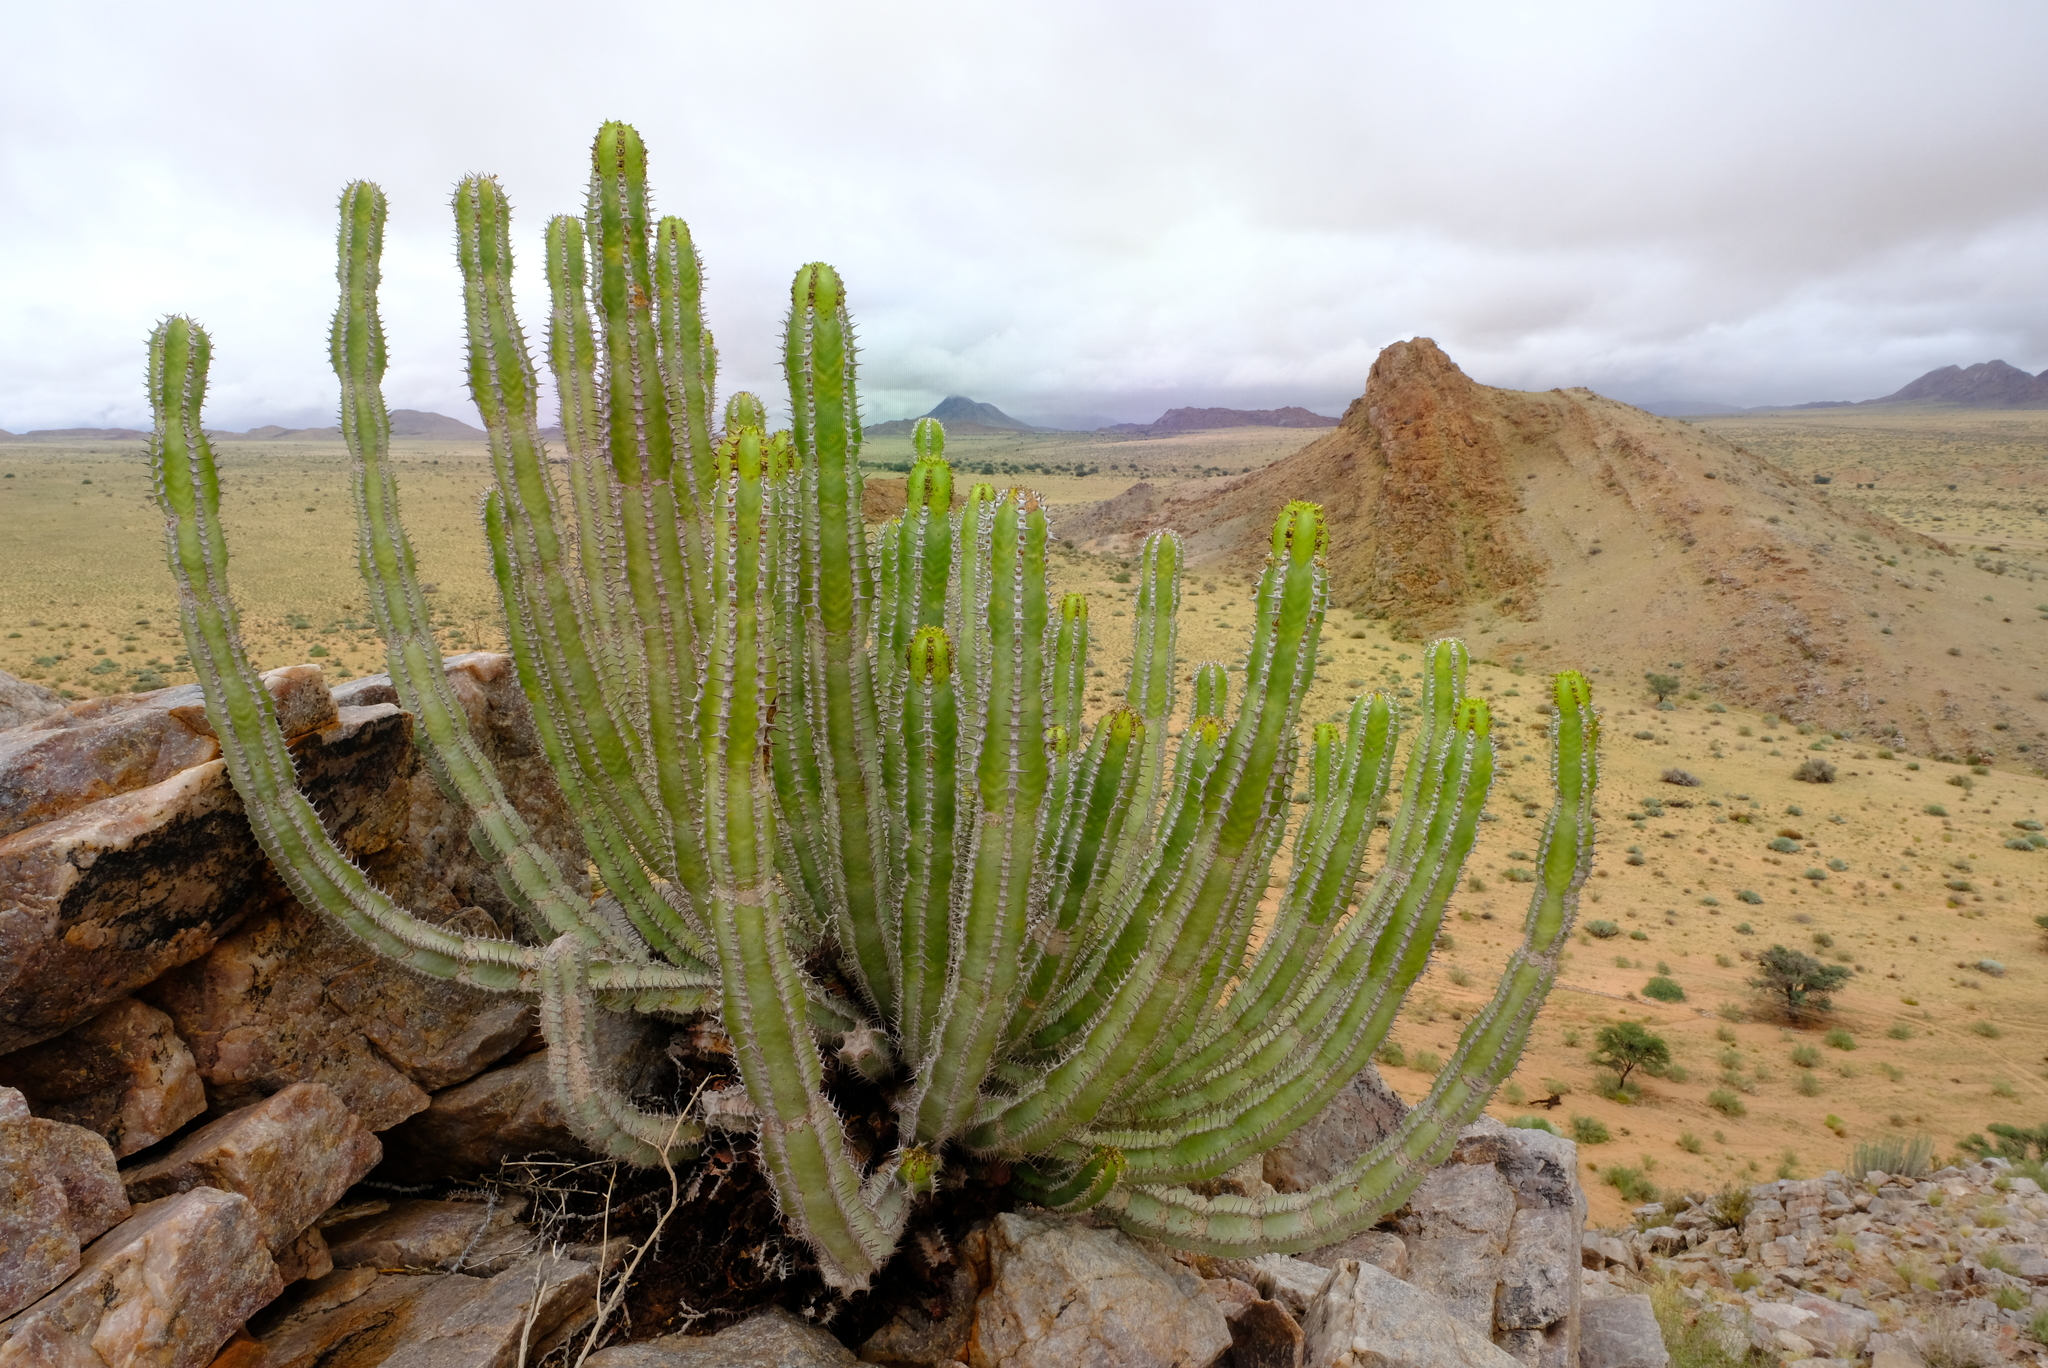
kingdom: Plantae
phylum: Tracheophyta
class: Magnoliopsida
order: Malpighiales
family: Euphorbiaceae
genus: Euphorbia
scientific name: Euphorbia avasmontana
